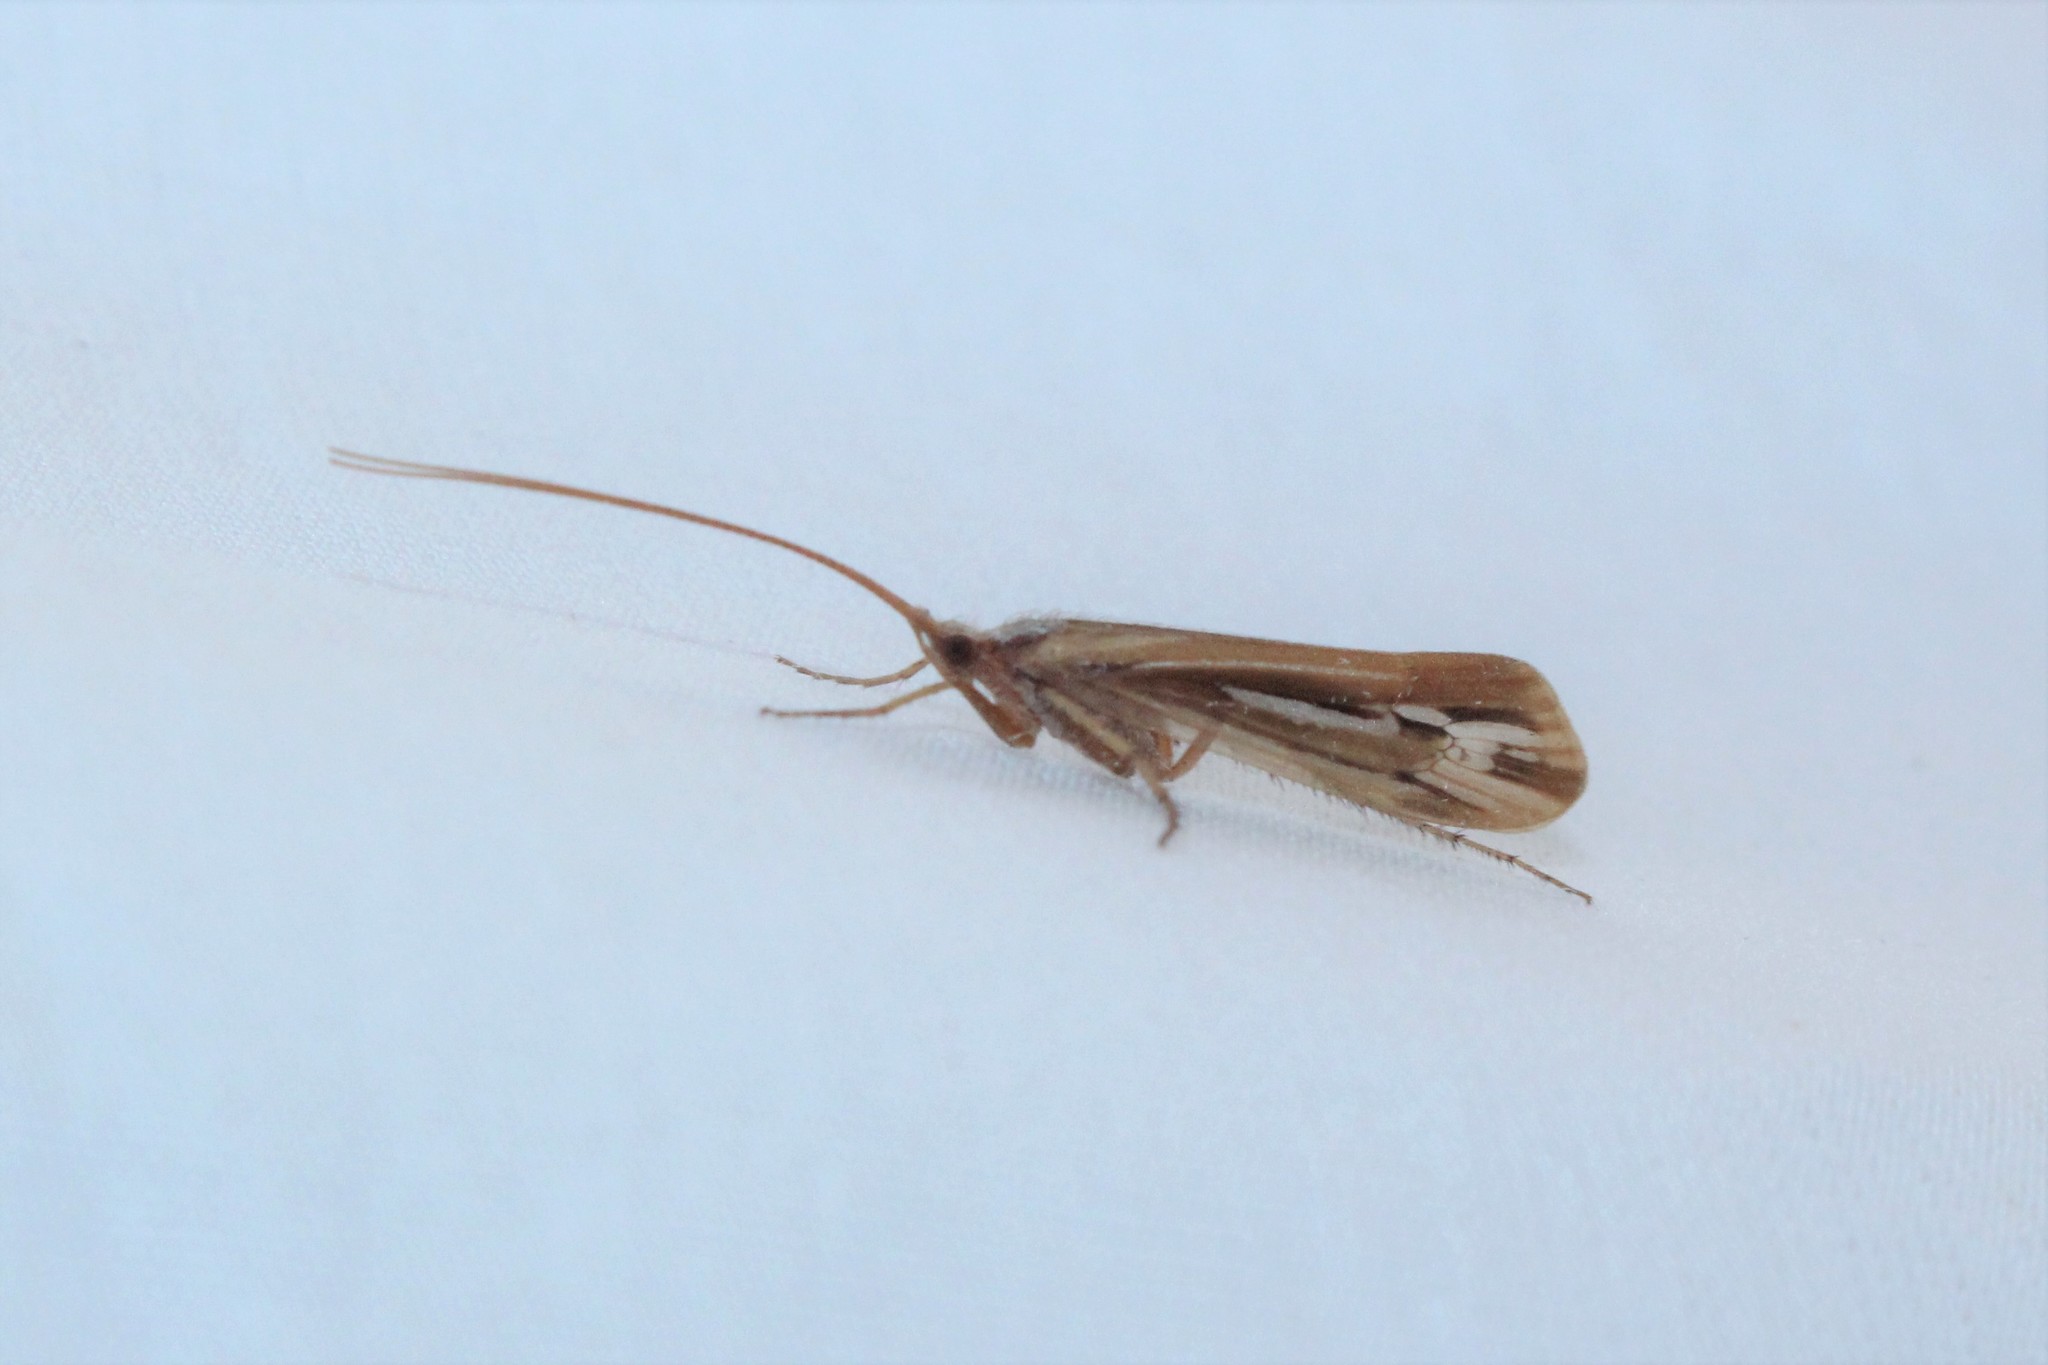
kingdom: Animalia
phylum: Arthropoda
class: Insecta
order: Trichoptera
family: Limnephilidae
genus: Limnephilus
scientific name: Limnephilus ornatus
